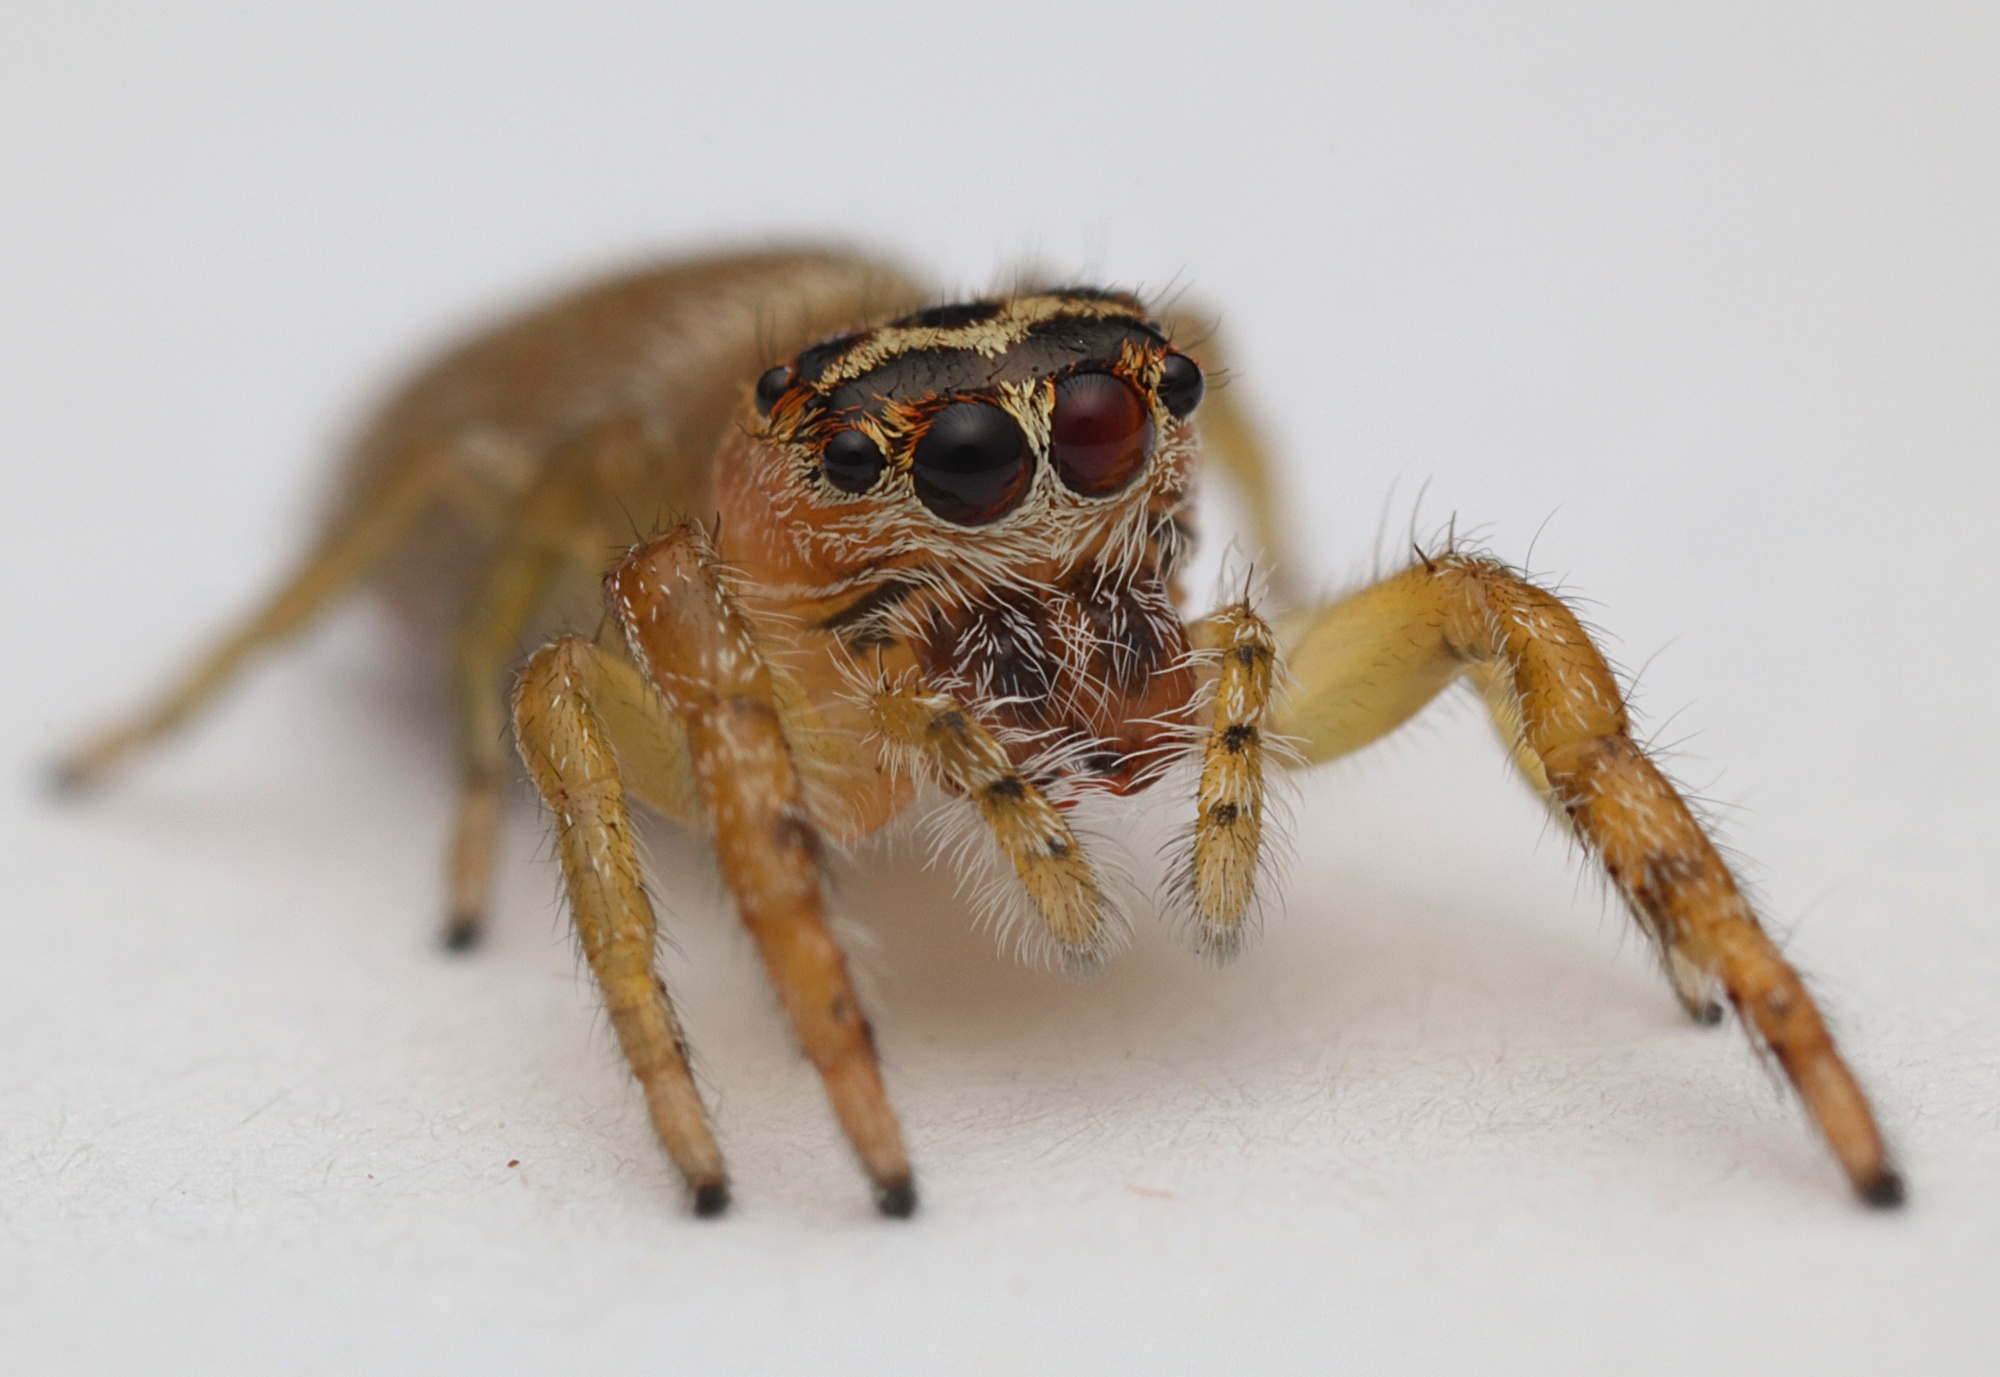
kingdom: Animalia
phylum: Arthropoda
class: Arachnida
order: Araneae
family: Salticidae
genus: Opisthoncus
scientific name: Opisthoncus polyphemus
